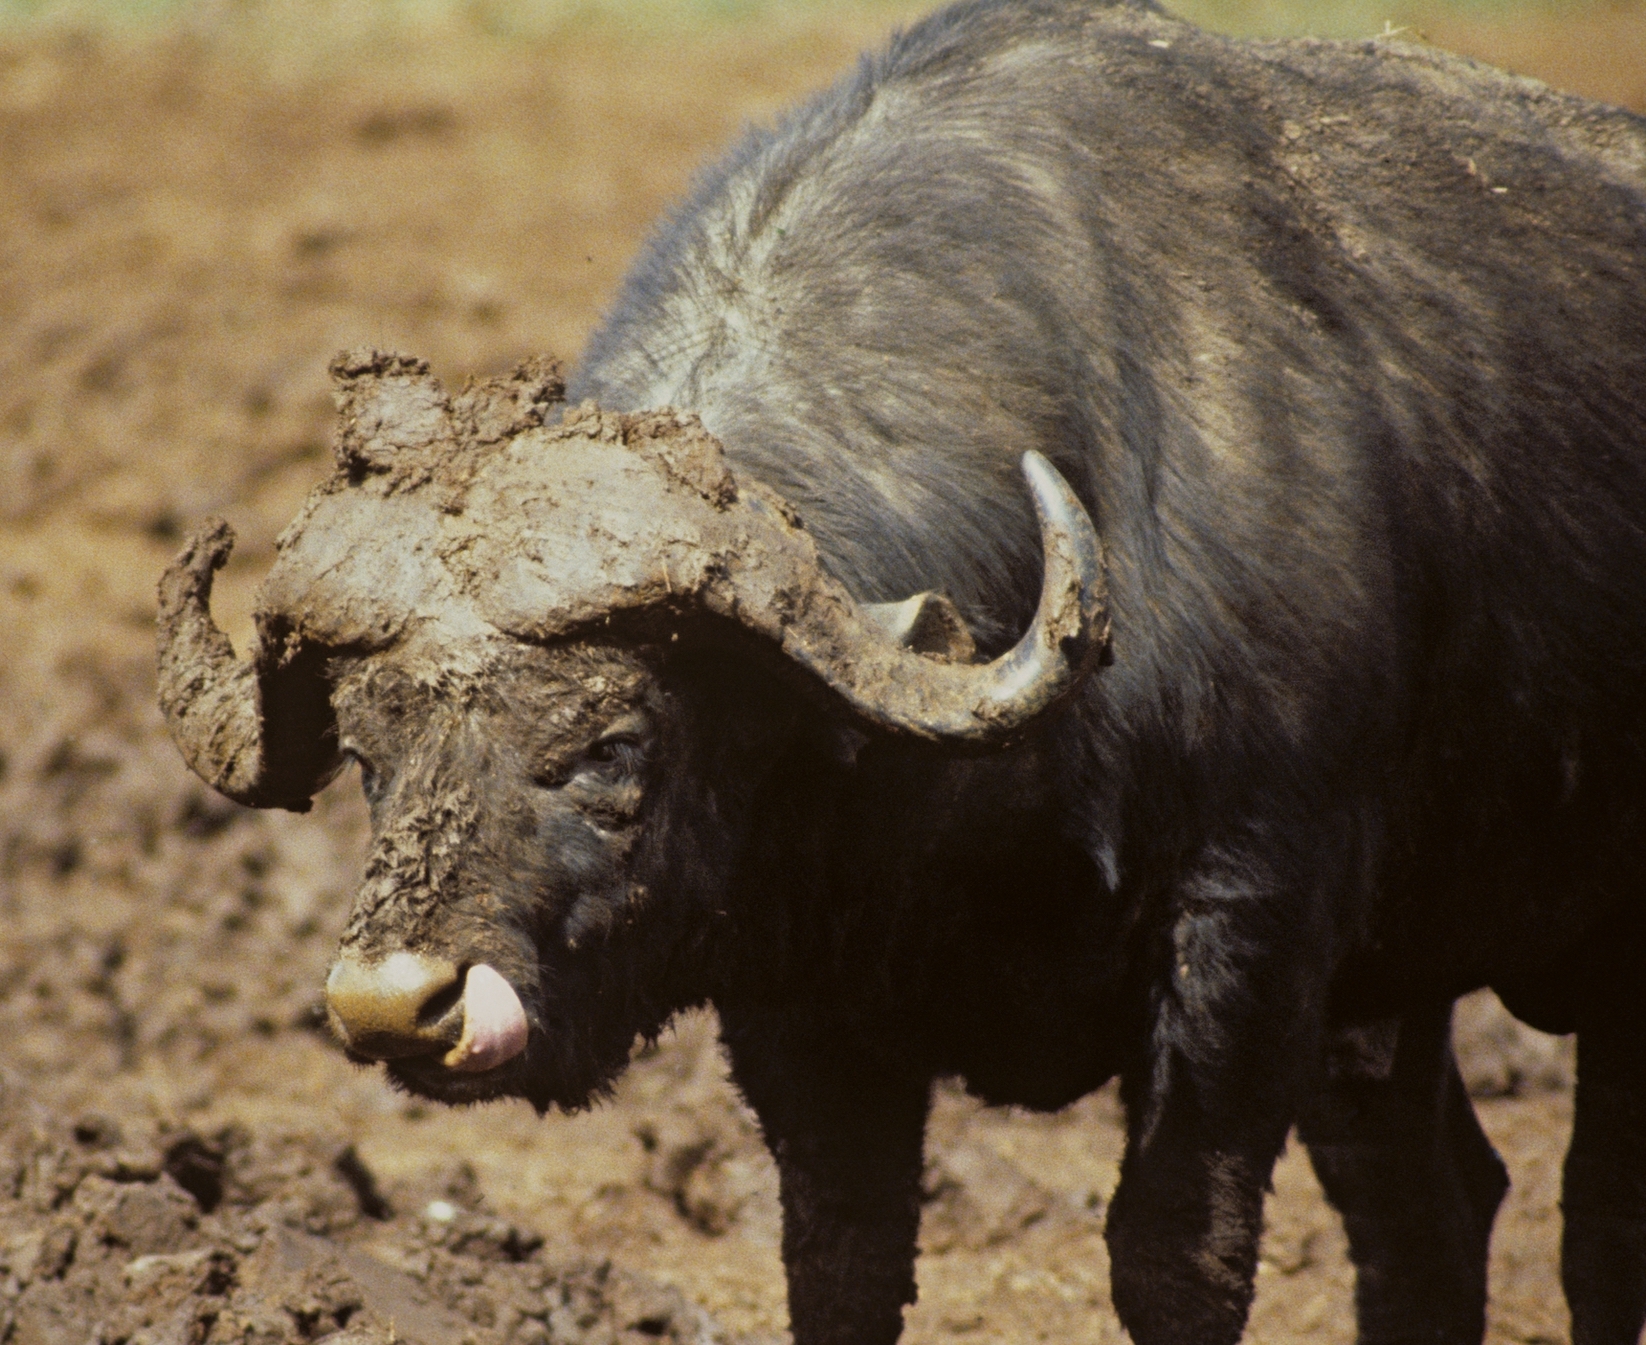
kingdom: Animalia
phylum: Chordata
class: Mammalia
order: Artiodactyla
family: Bovidae
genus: Syncerus
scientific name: Syncerus caffer
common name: African buffalo
